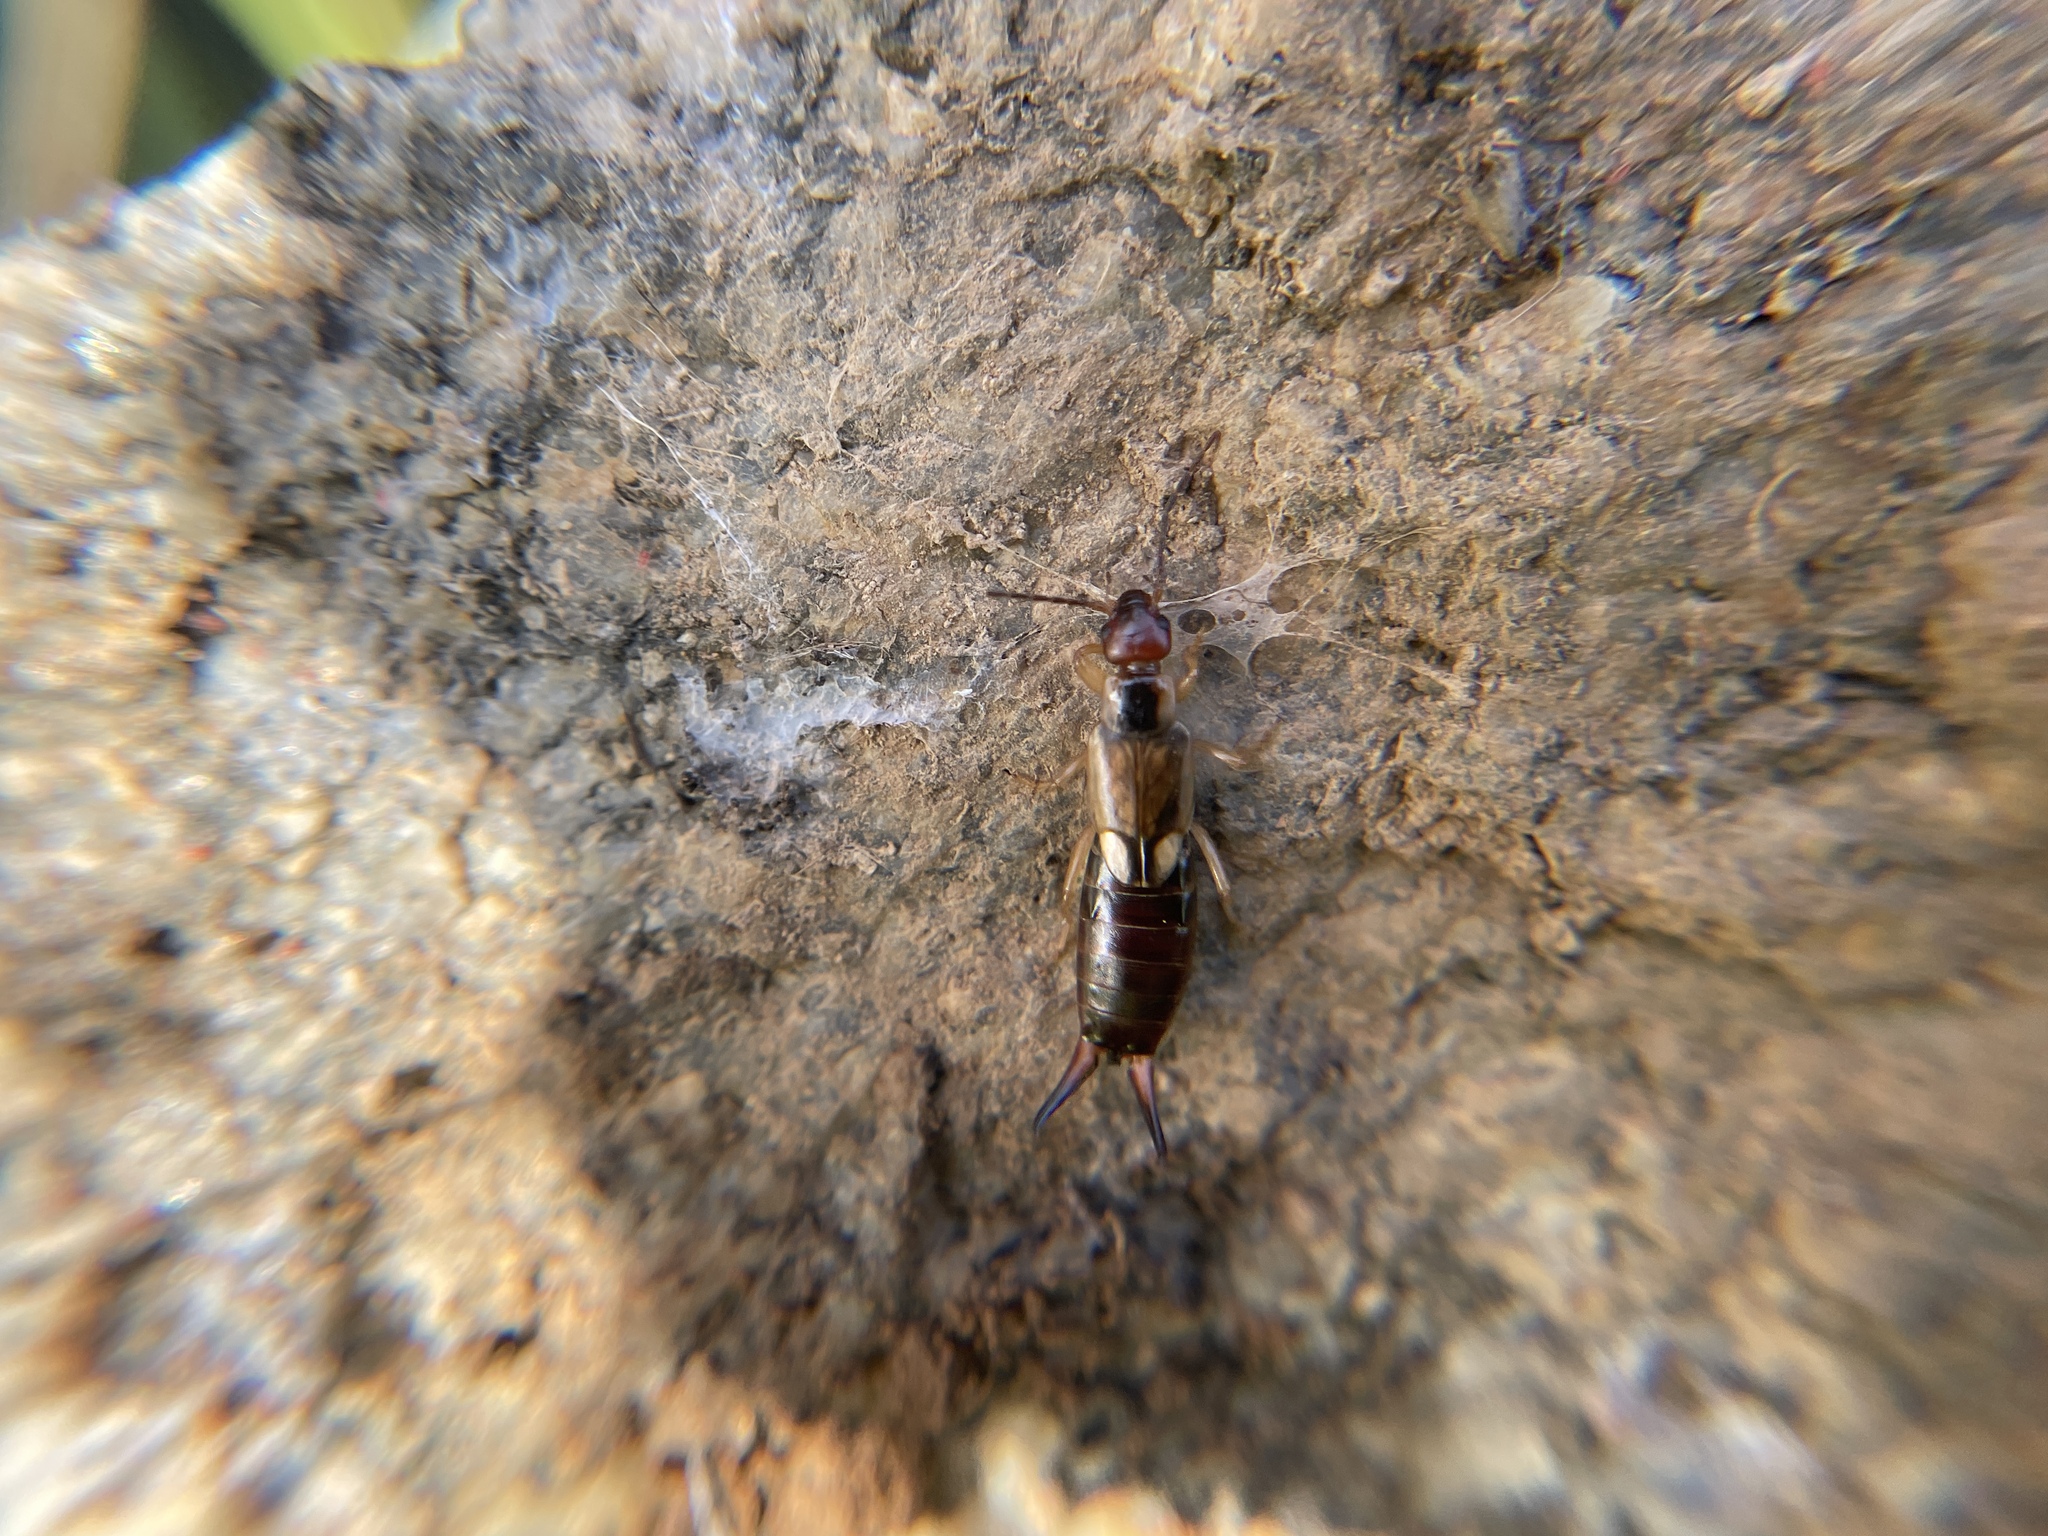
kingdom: Animalia
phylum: Arthropoda
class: Insecta
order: Dermaptera
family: Forficulidae
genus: Forficula
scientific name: Forficula
